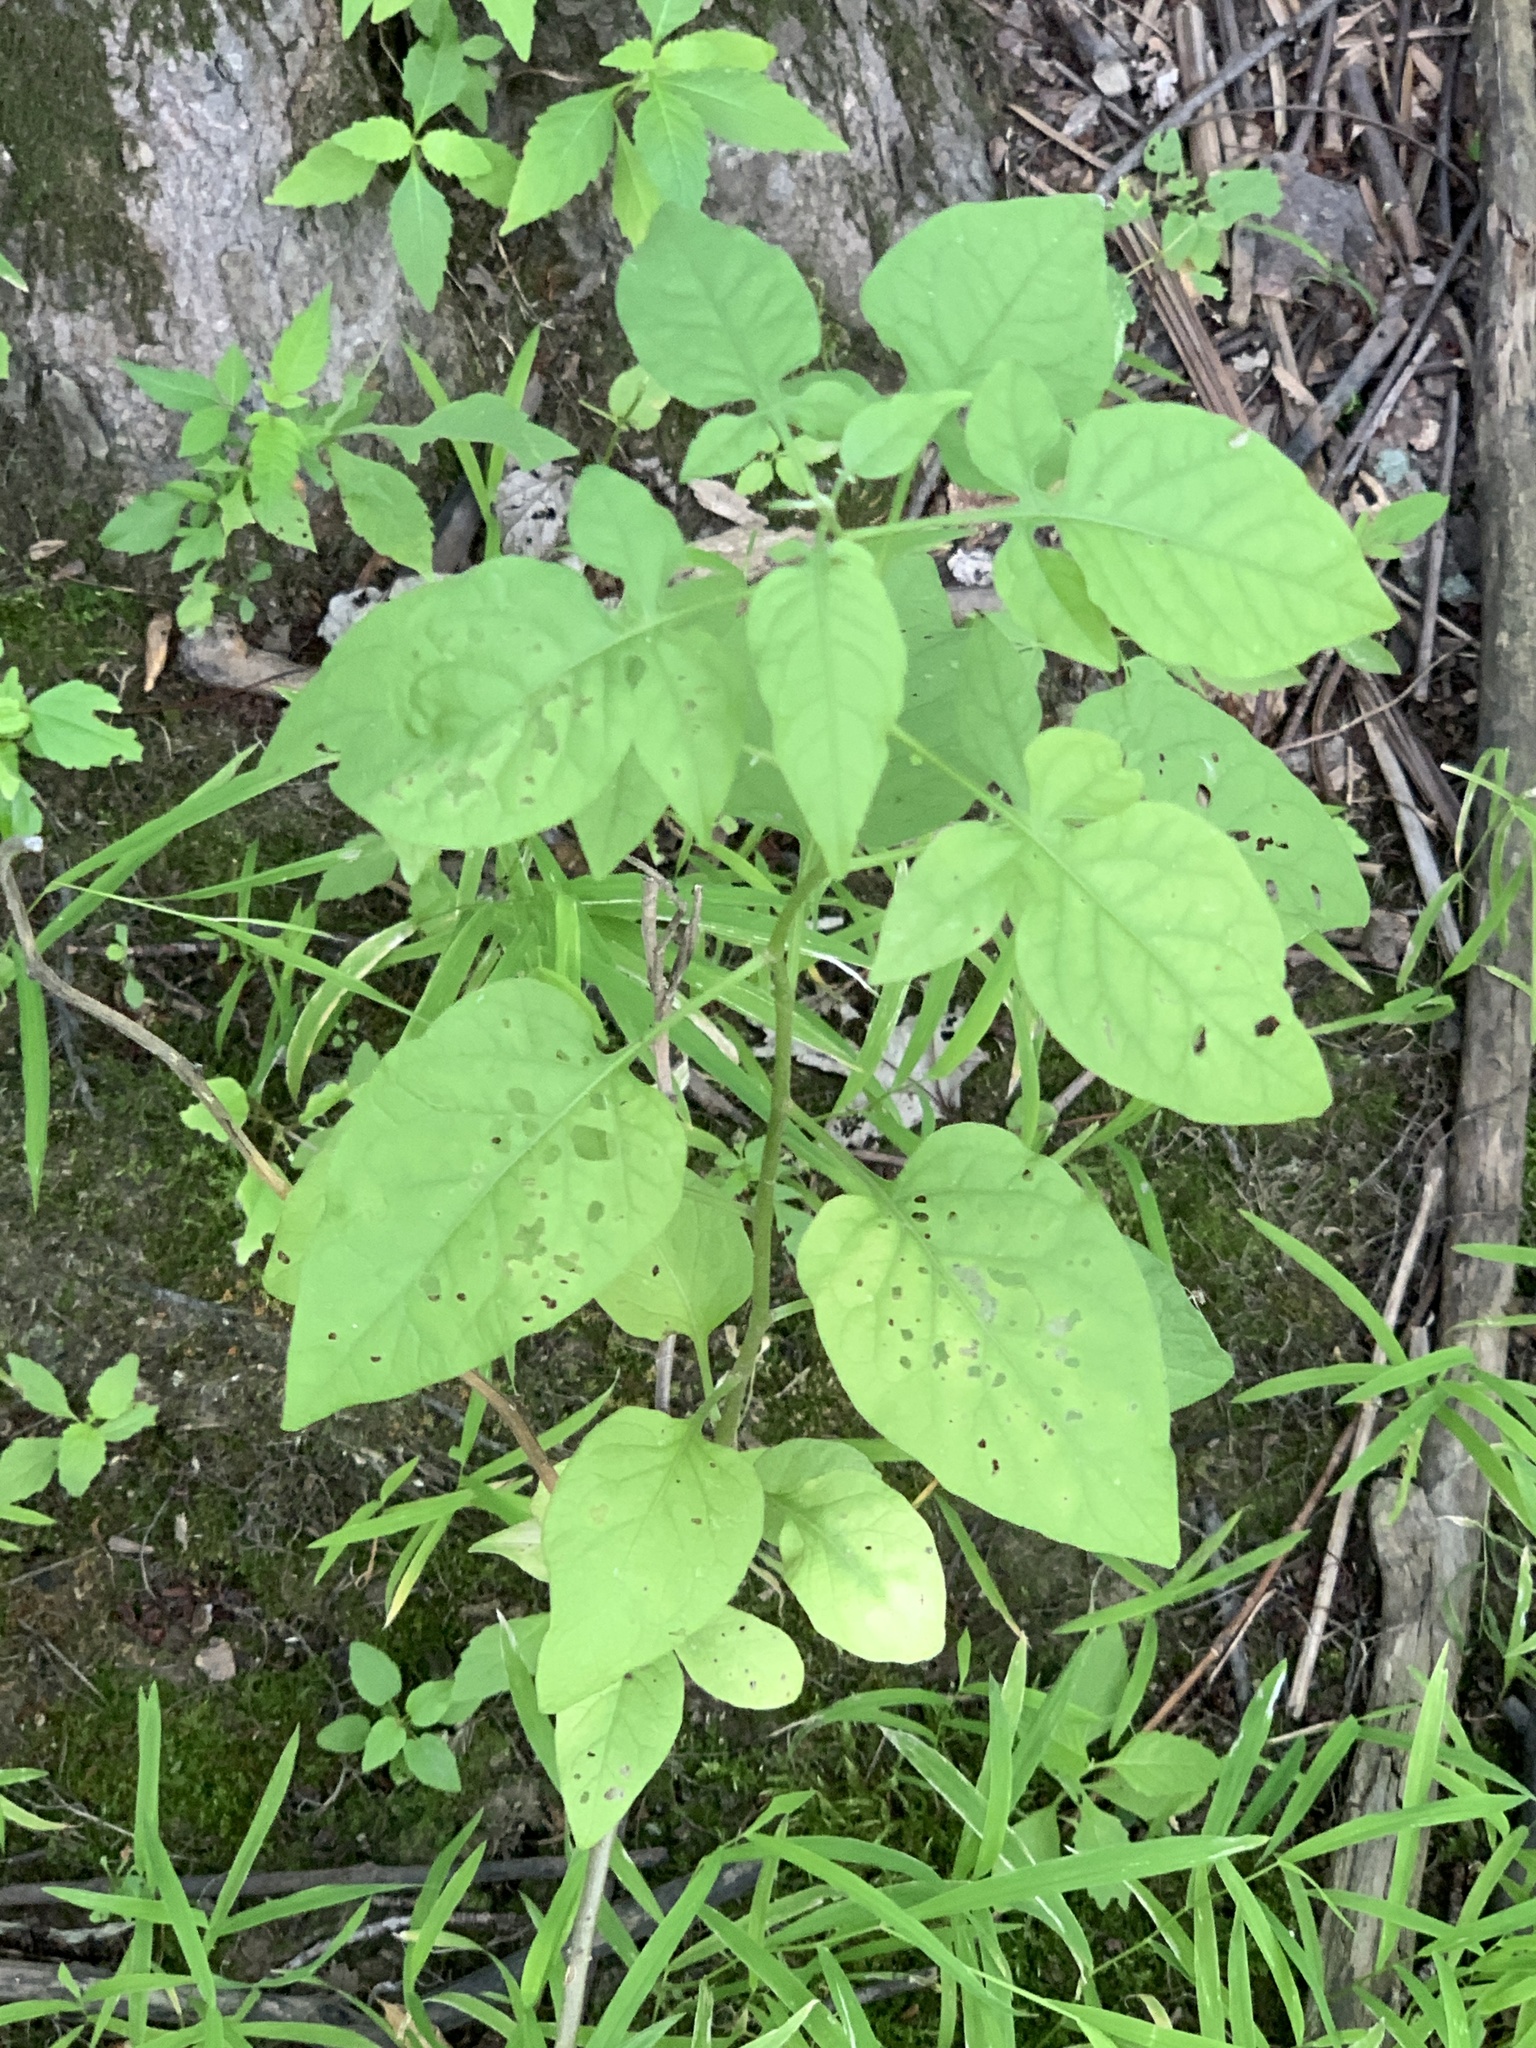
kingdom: Plantae
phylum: Tracheophyta
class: Magnoliopsida
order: Solanales
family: Solanaceae
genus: Solanum
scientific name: Solanum dulcamara
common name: Climbing nightshade
